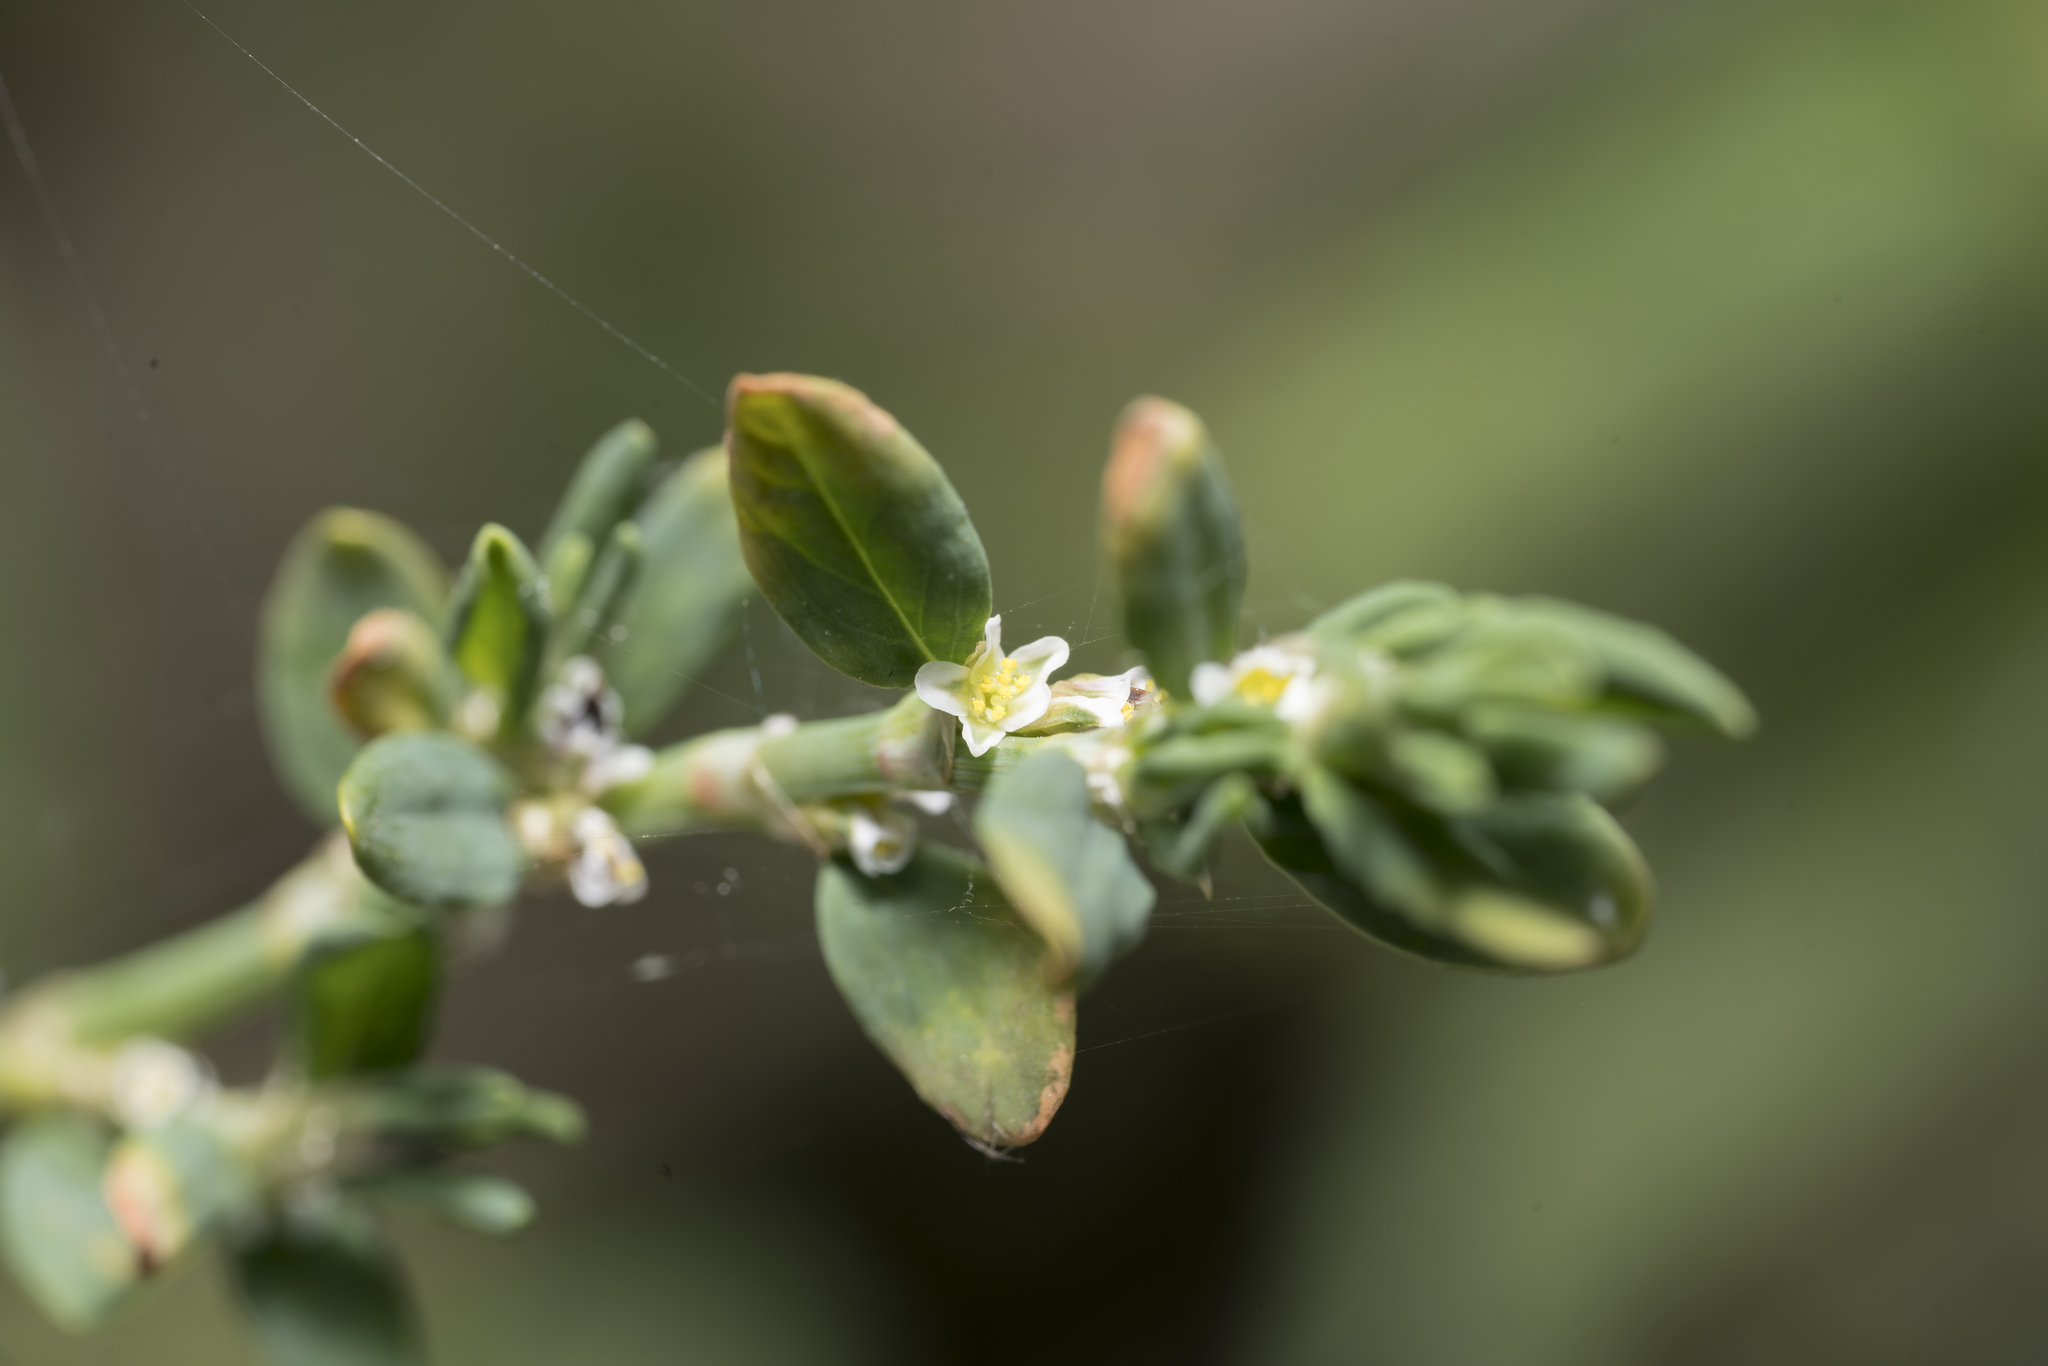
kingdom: Plantae
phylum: Tracheophyta
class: Magnoliopsida
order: Caryophyllales
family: Polygonaceae
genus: Polygonum
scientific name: Polygonum aviculare
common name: Prostrate knotweed
